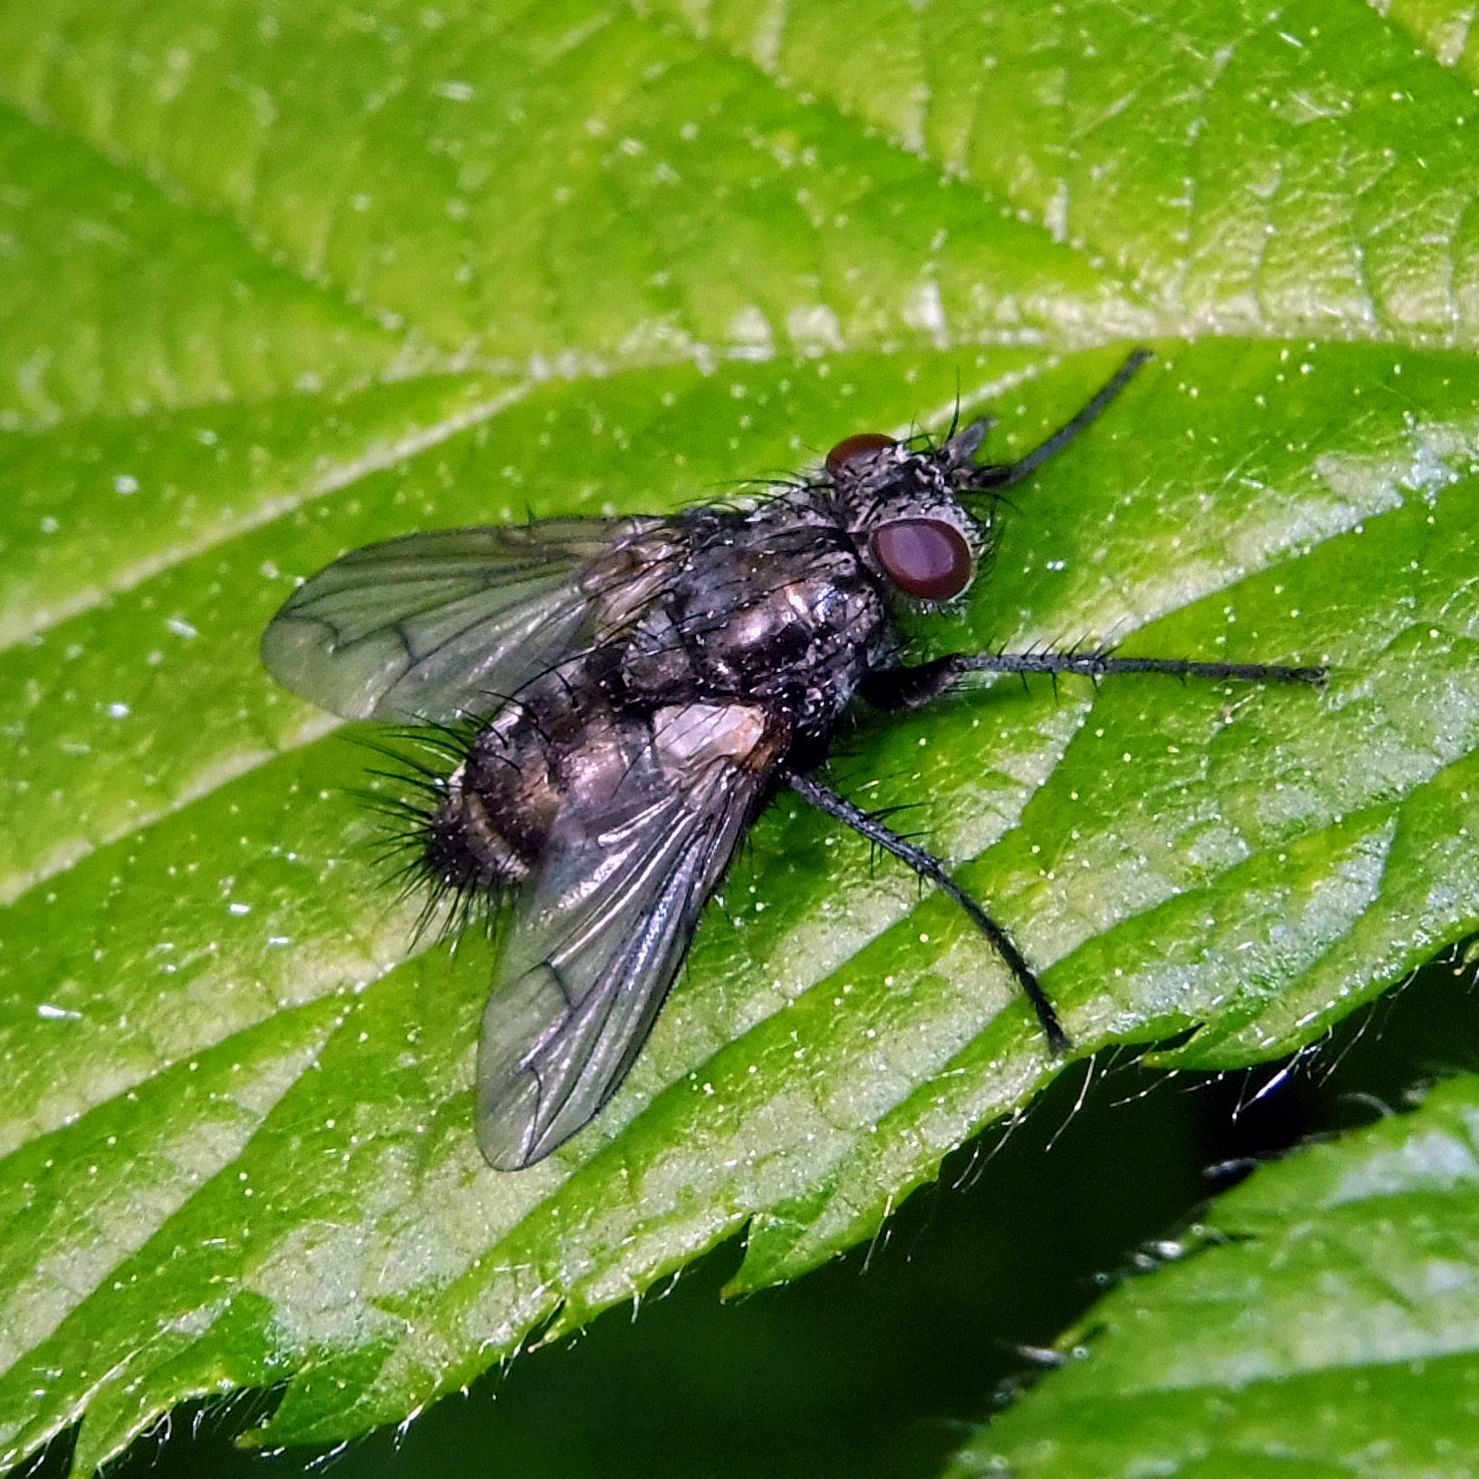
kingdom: Animalia
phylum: Arthropoda
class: Insecta
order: Diptera
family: Tachinidae
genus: Periscepsia
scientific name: Periscepsia spathulata
